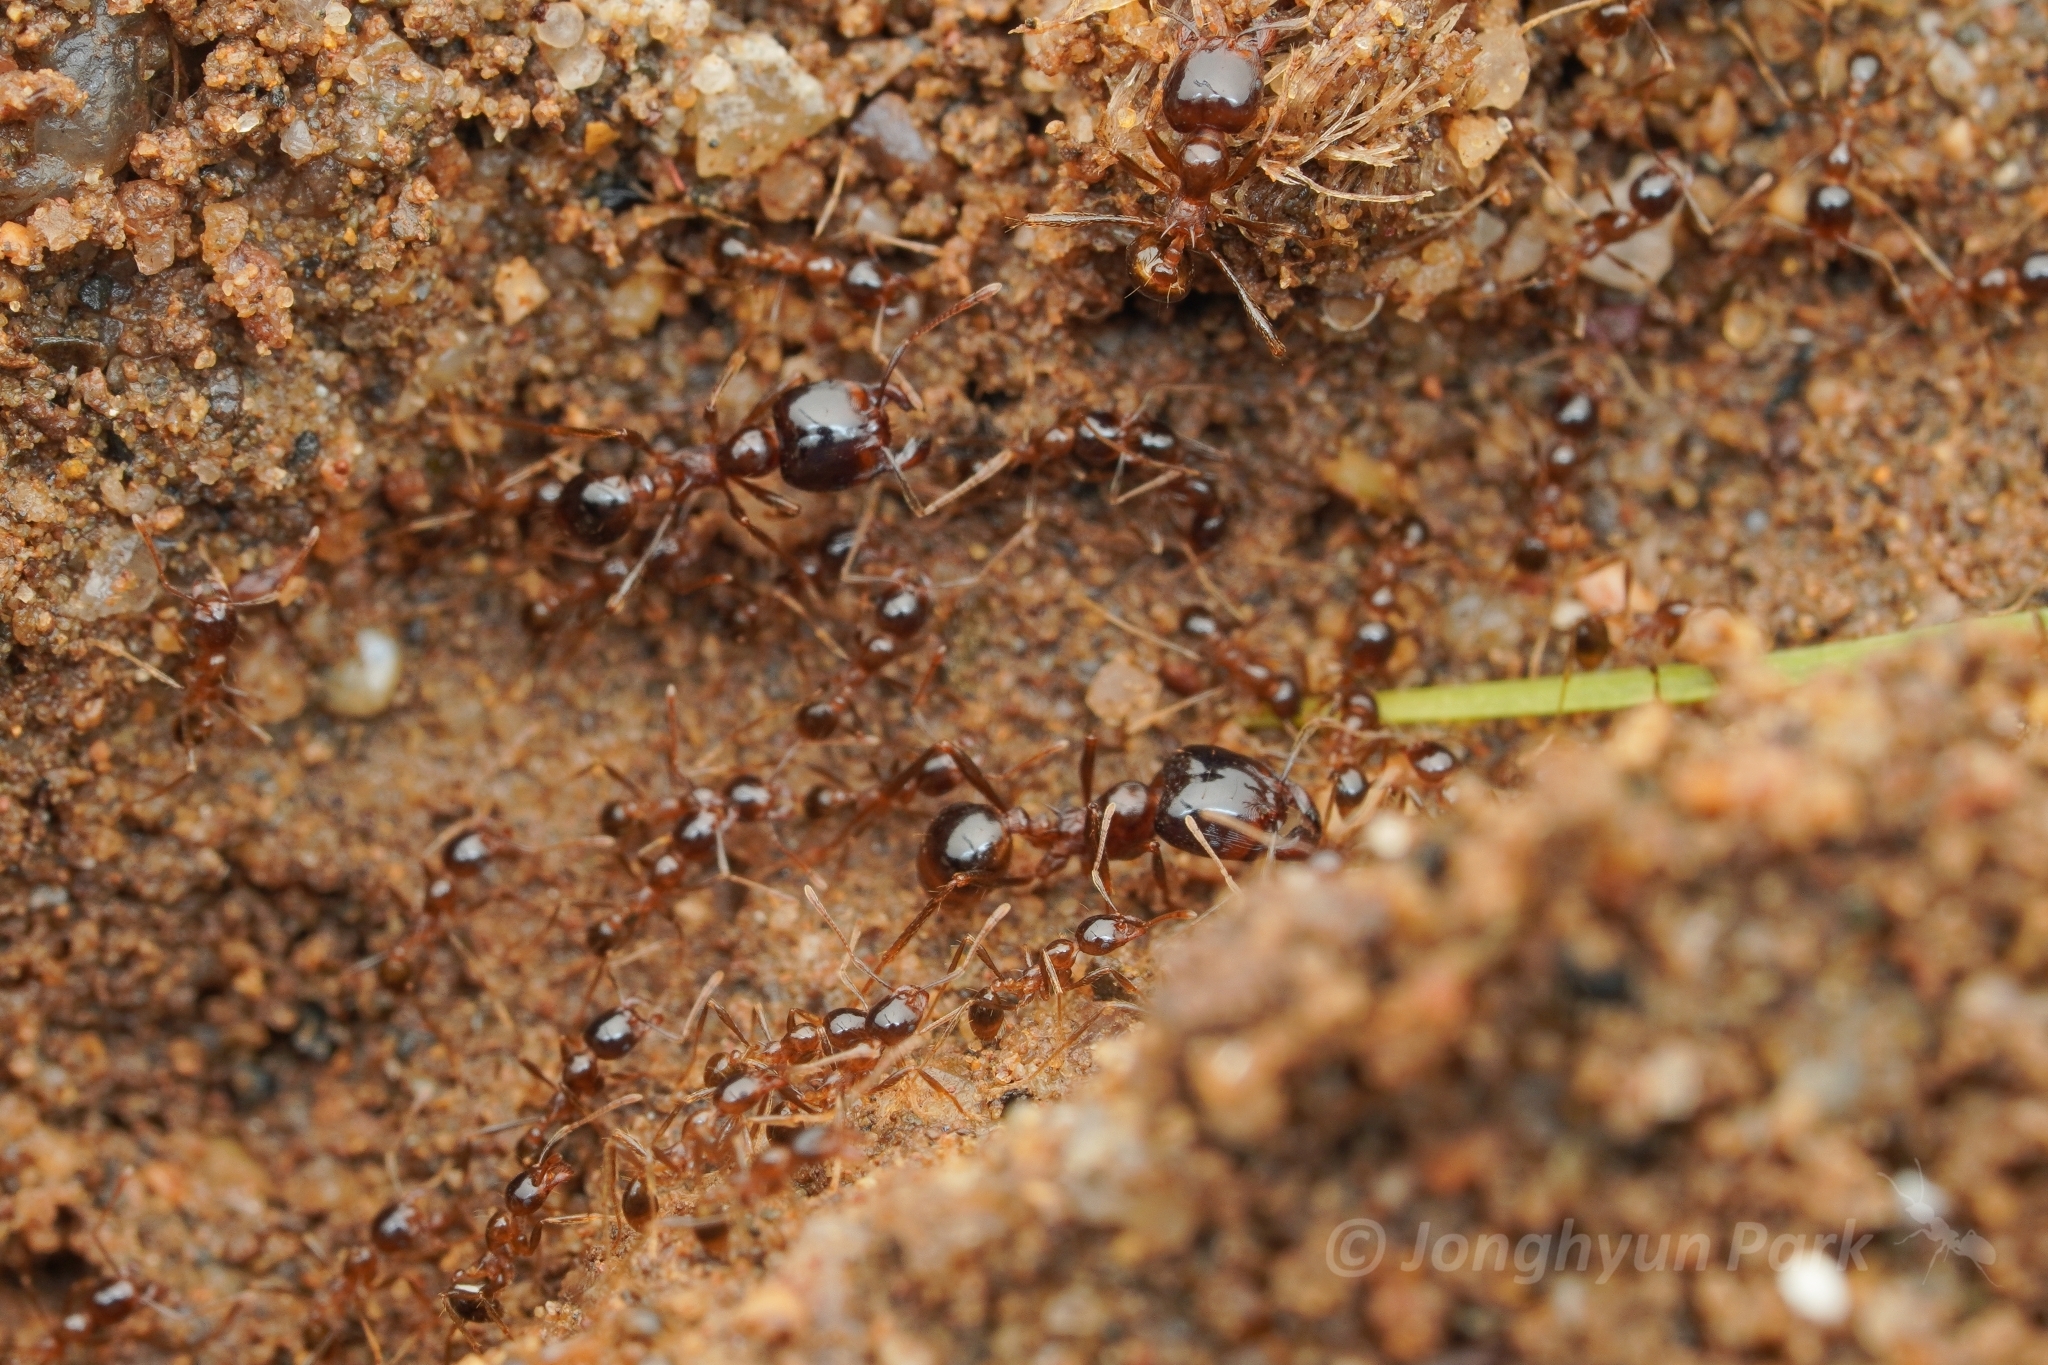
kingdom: Animalia
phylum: Arthropoda
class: Insecta
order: Hymenoptera
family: Formicidae
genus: Pheidologeton
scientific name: Pheidologeton diversus
